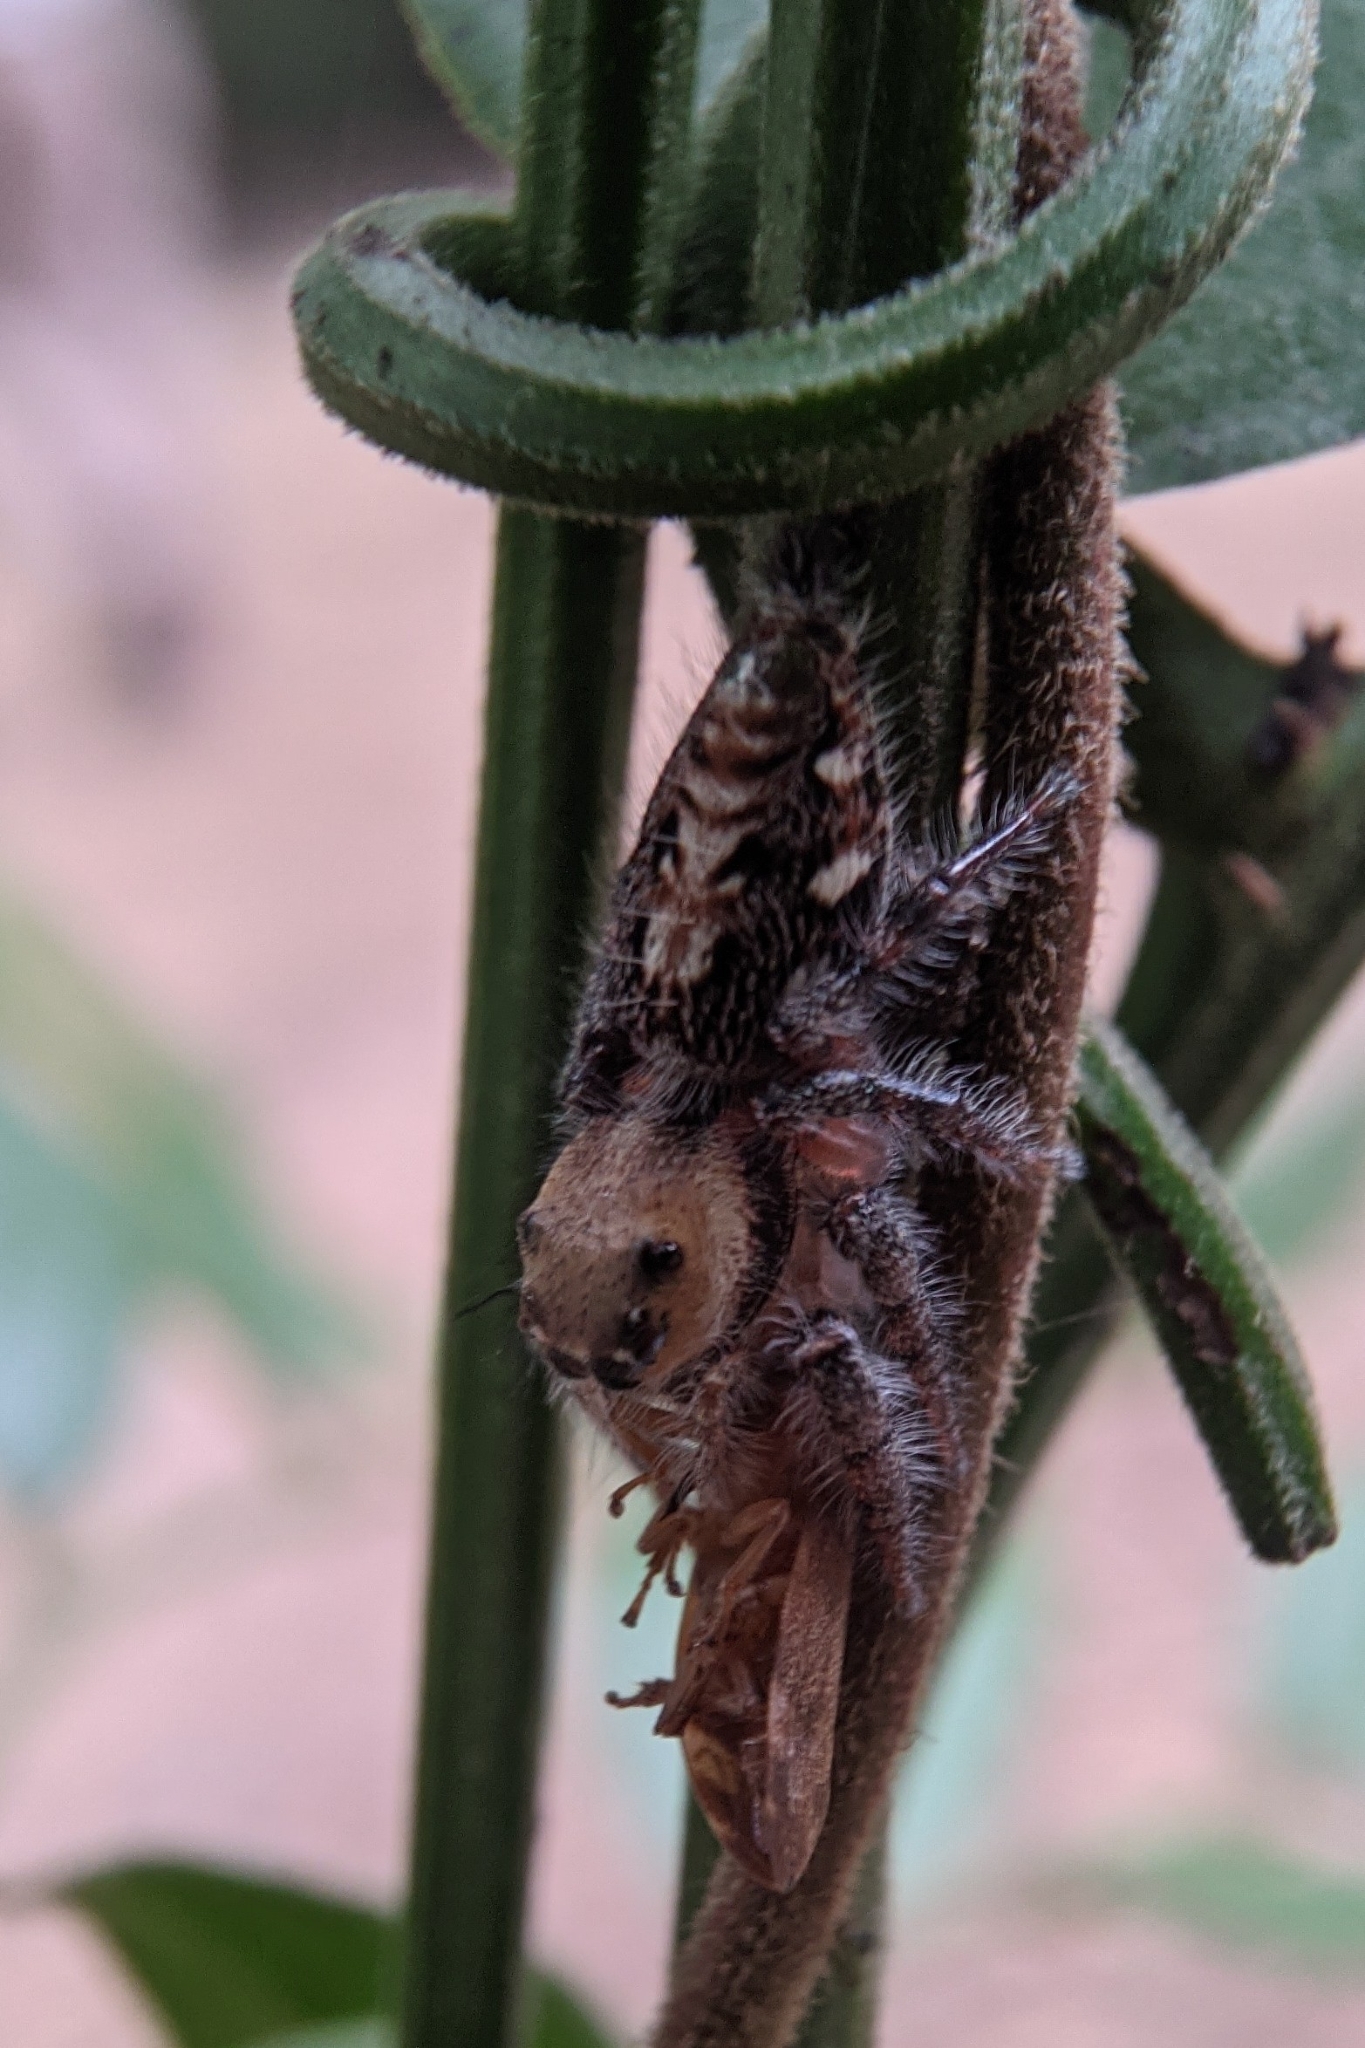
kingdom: Animalia
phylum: Arthropoda
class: Arachnida
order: Araneae
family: Salticidae
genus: Hyllus
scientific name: Hyllus semicupreus
